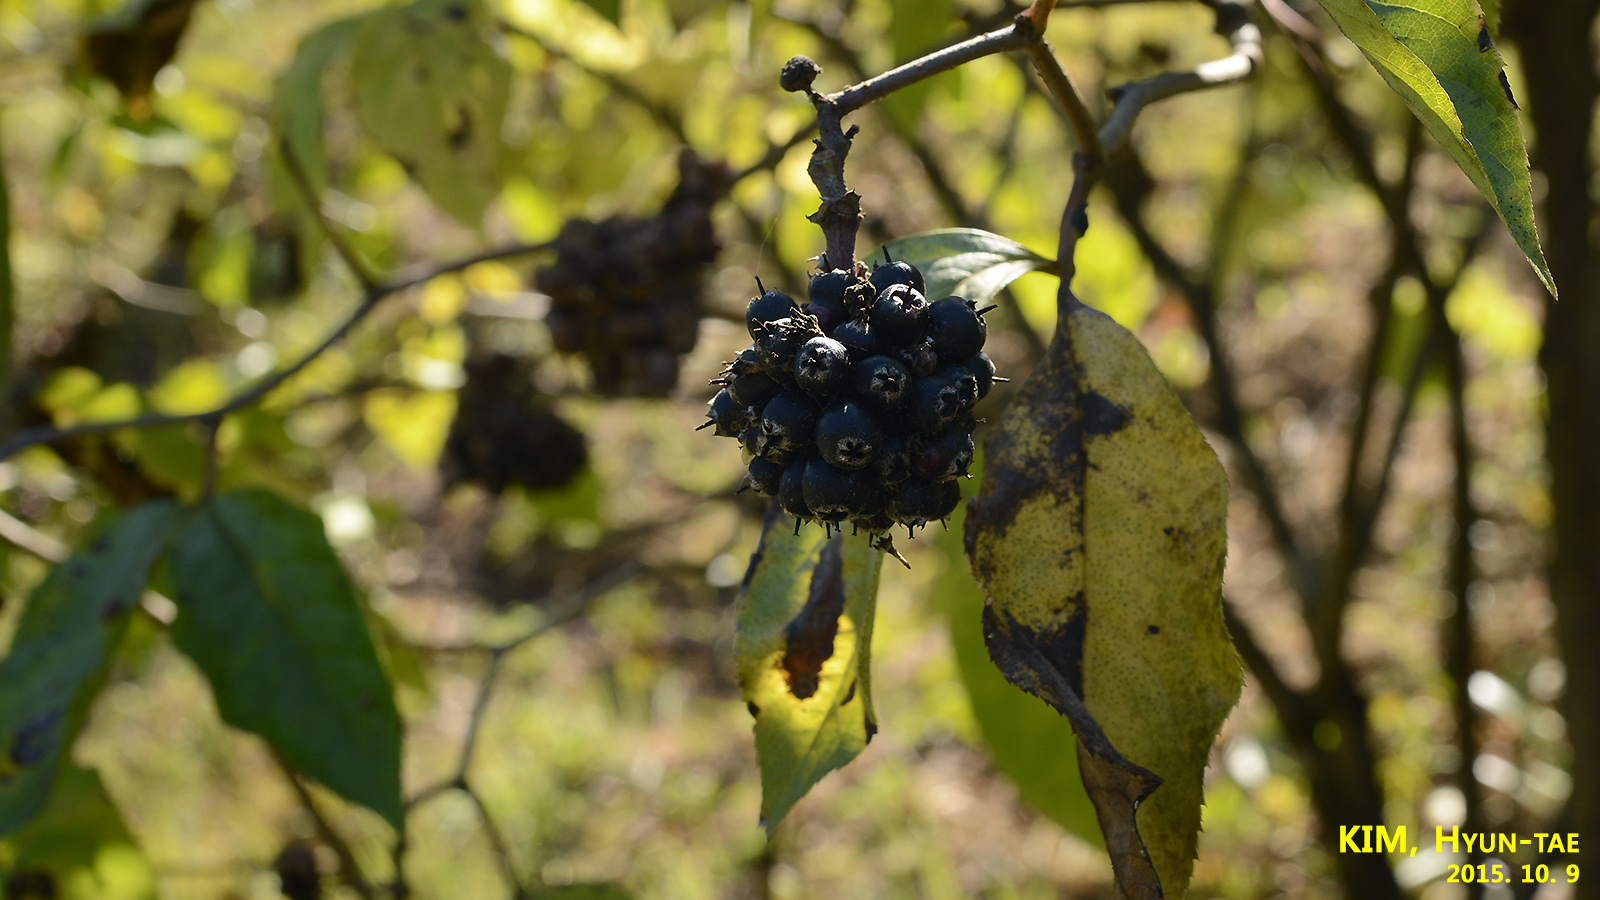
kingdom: Plantae
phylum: Tracheophyta
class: Magnoliopsida
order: Apiales
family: Araliaceae
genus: Eleutherococcus
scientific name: Eleutherococcus sessiliflorus
